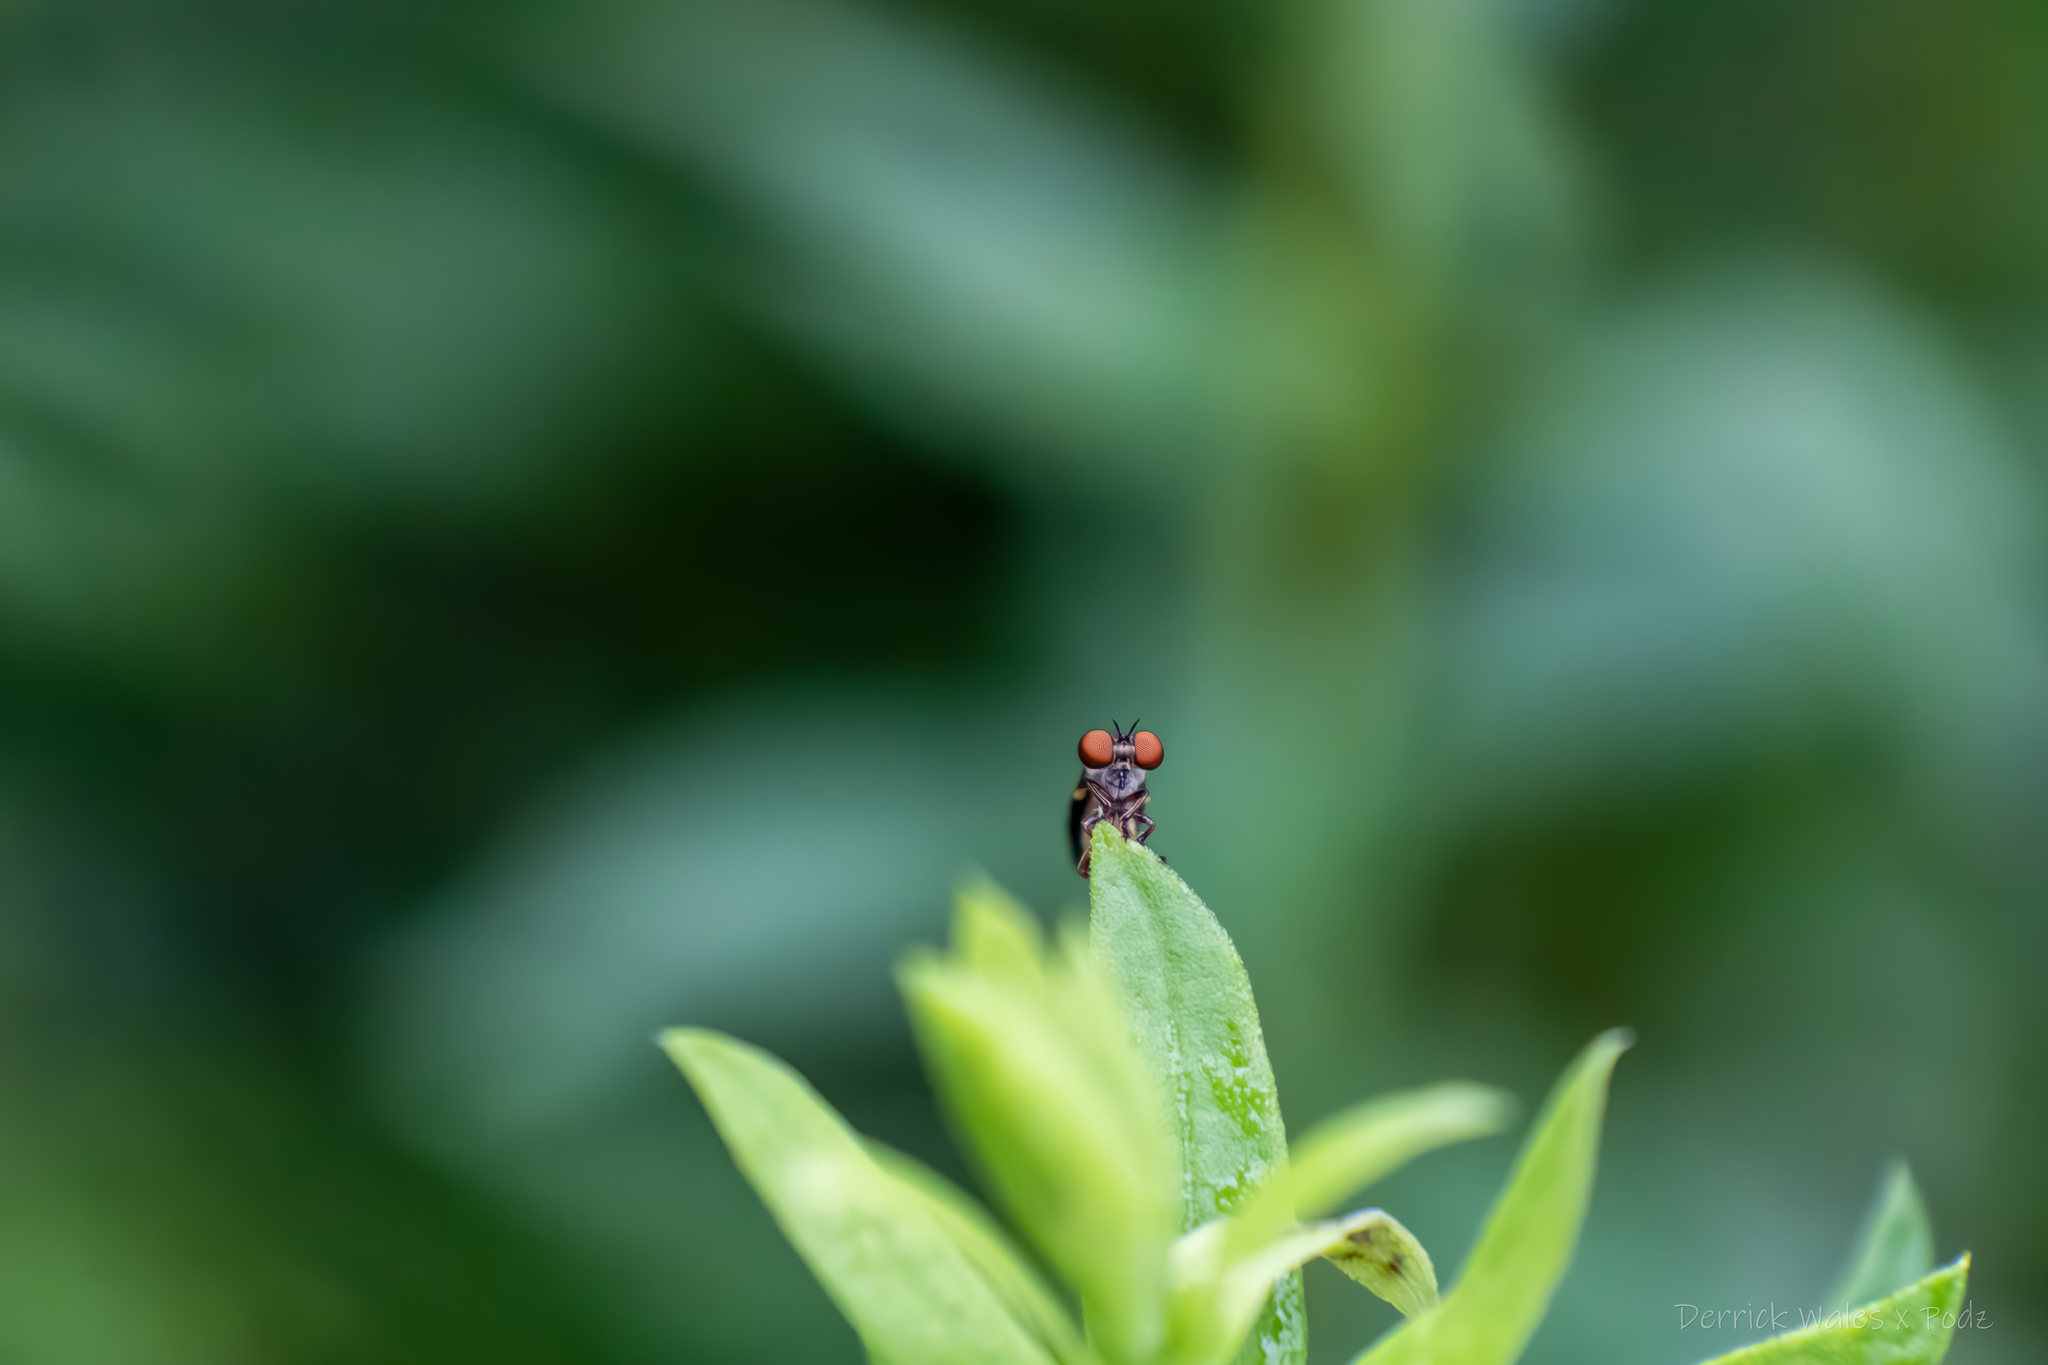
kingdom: Animalia
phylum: Arthropoda
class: Insecta
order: Diptera
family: Asilidae
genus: Holcocephala
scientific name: Holcocephala
